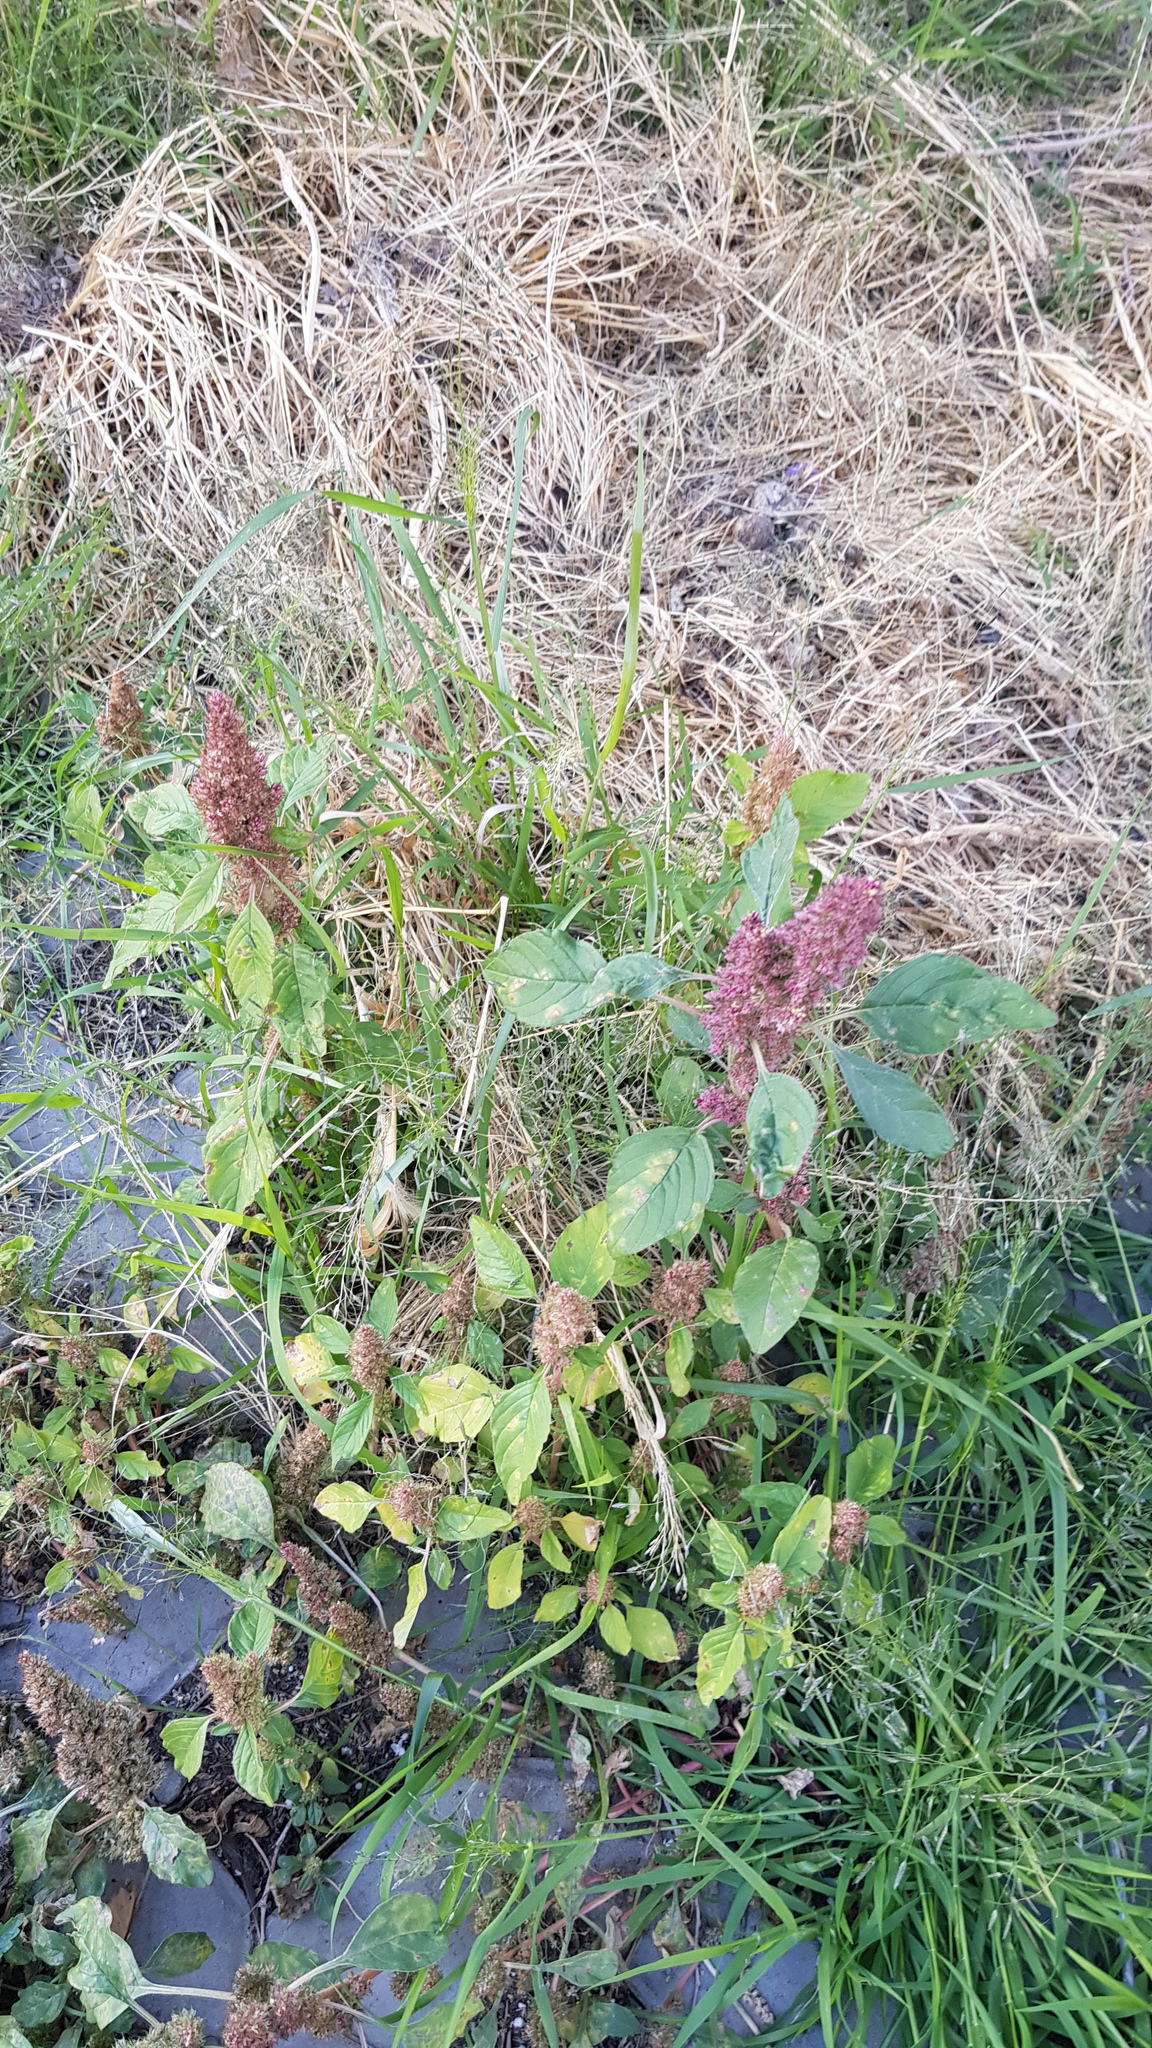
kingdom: Plantae
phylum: Tracheophyta
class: Magnoliopsida
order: Caryophyllales
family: Amaranthaceae
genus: Amaranthus
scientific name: Amaranthus cruentus
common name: Purple amaranth
